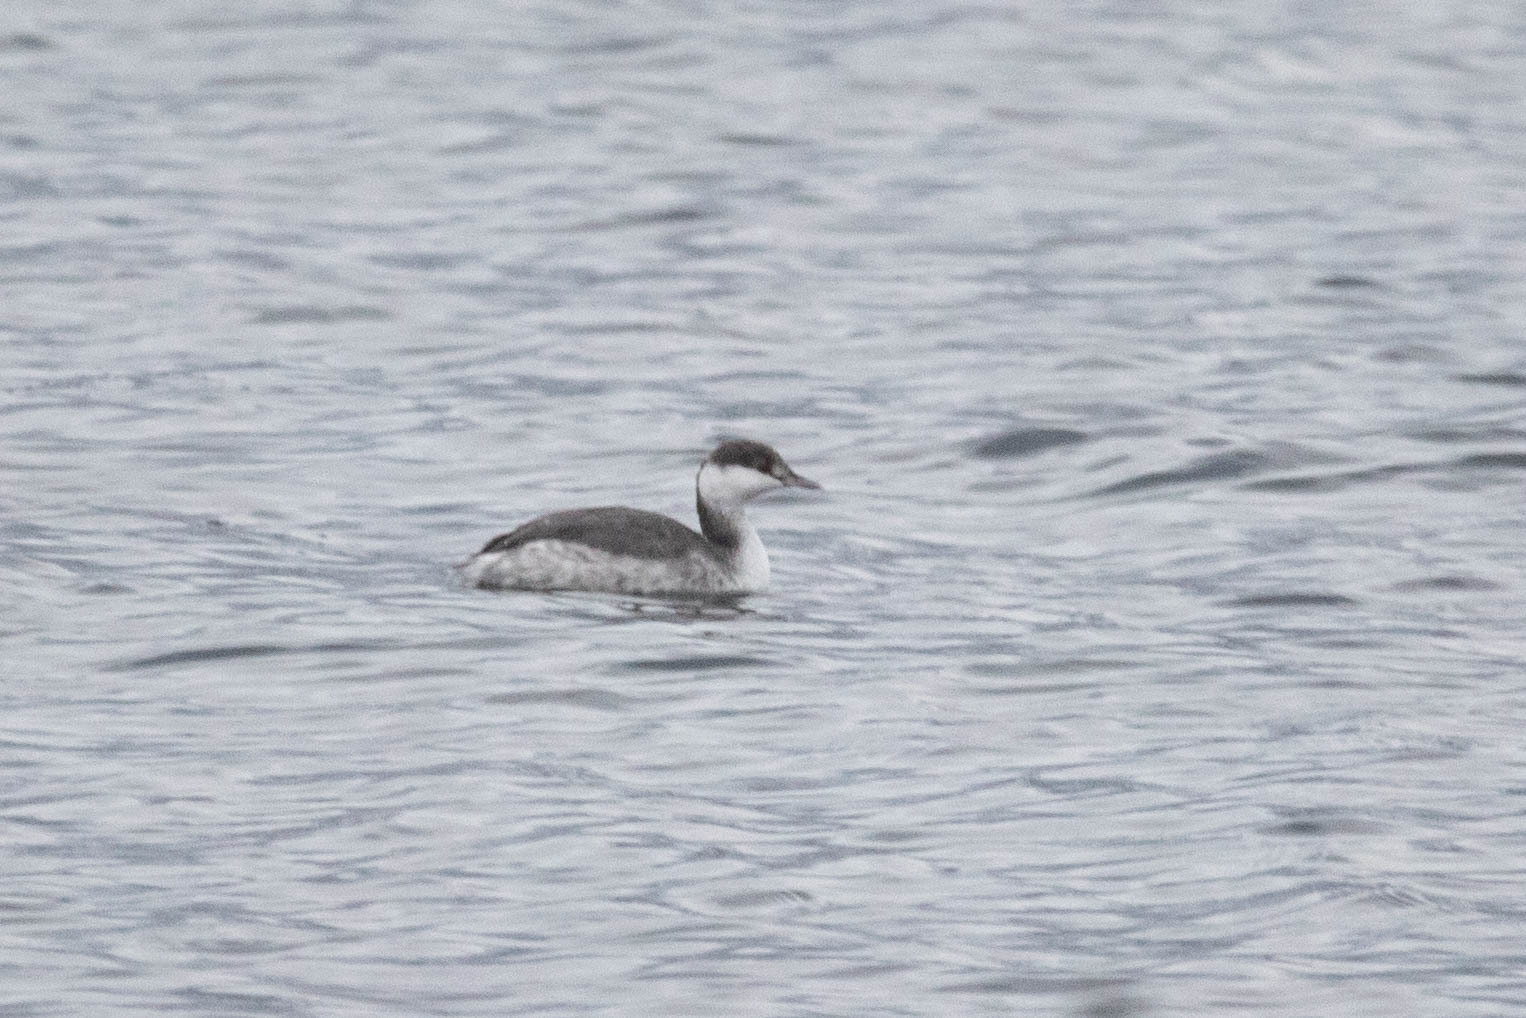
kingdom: Animalia
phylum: Chordata
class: Aves
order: Podicipediformes
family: Podicipedidae
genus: Podiceps
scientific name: Podiceps auritus
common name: Horned grebe
